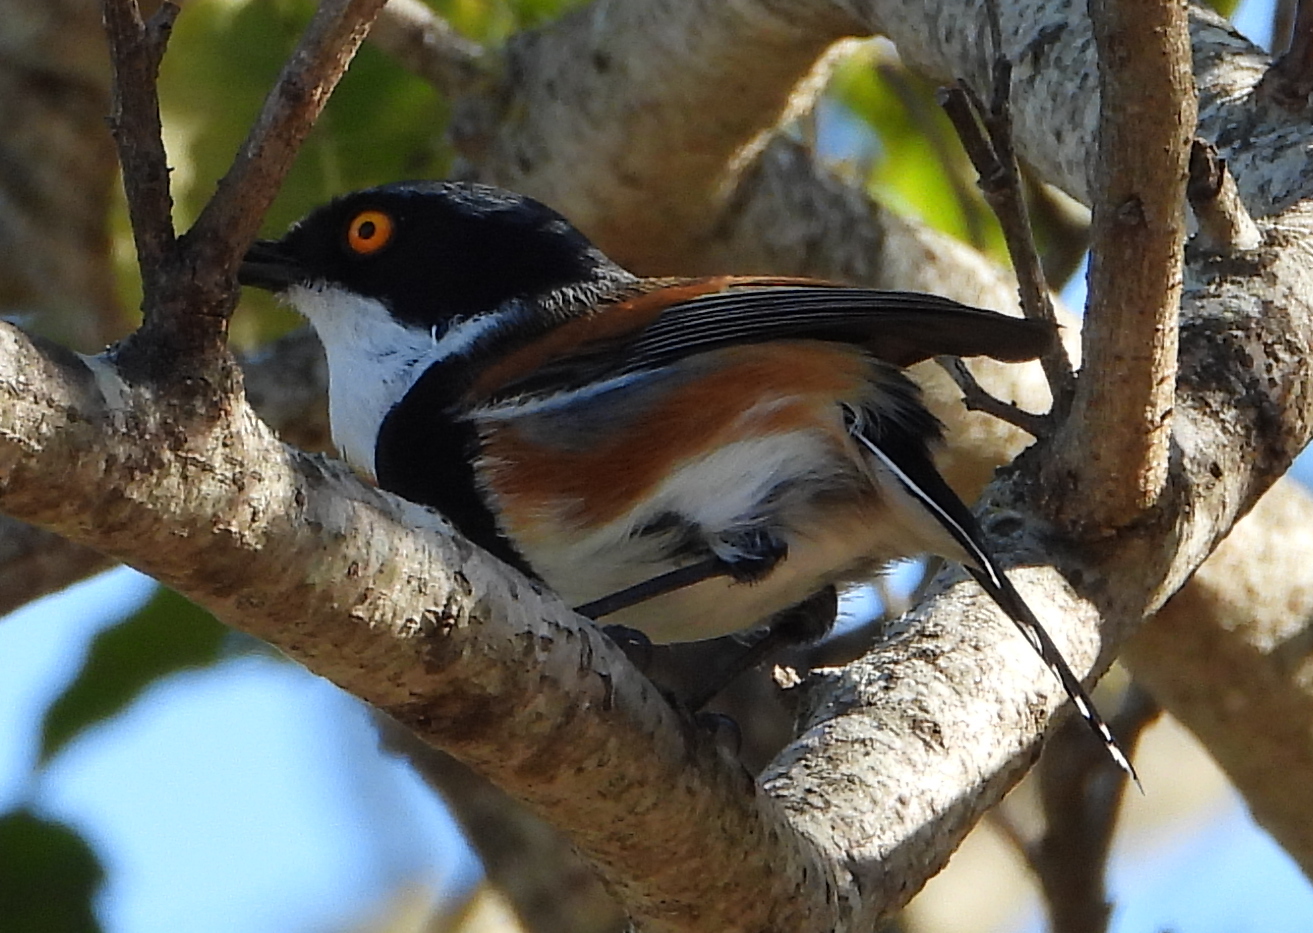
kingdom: Animalia
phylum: Chordata
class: Aves
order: Passeriformes
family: Platysteiridae
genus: Batis
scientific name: Batis capensis
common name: Cape batis
